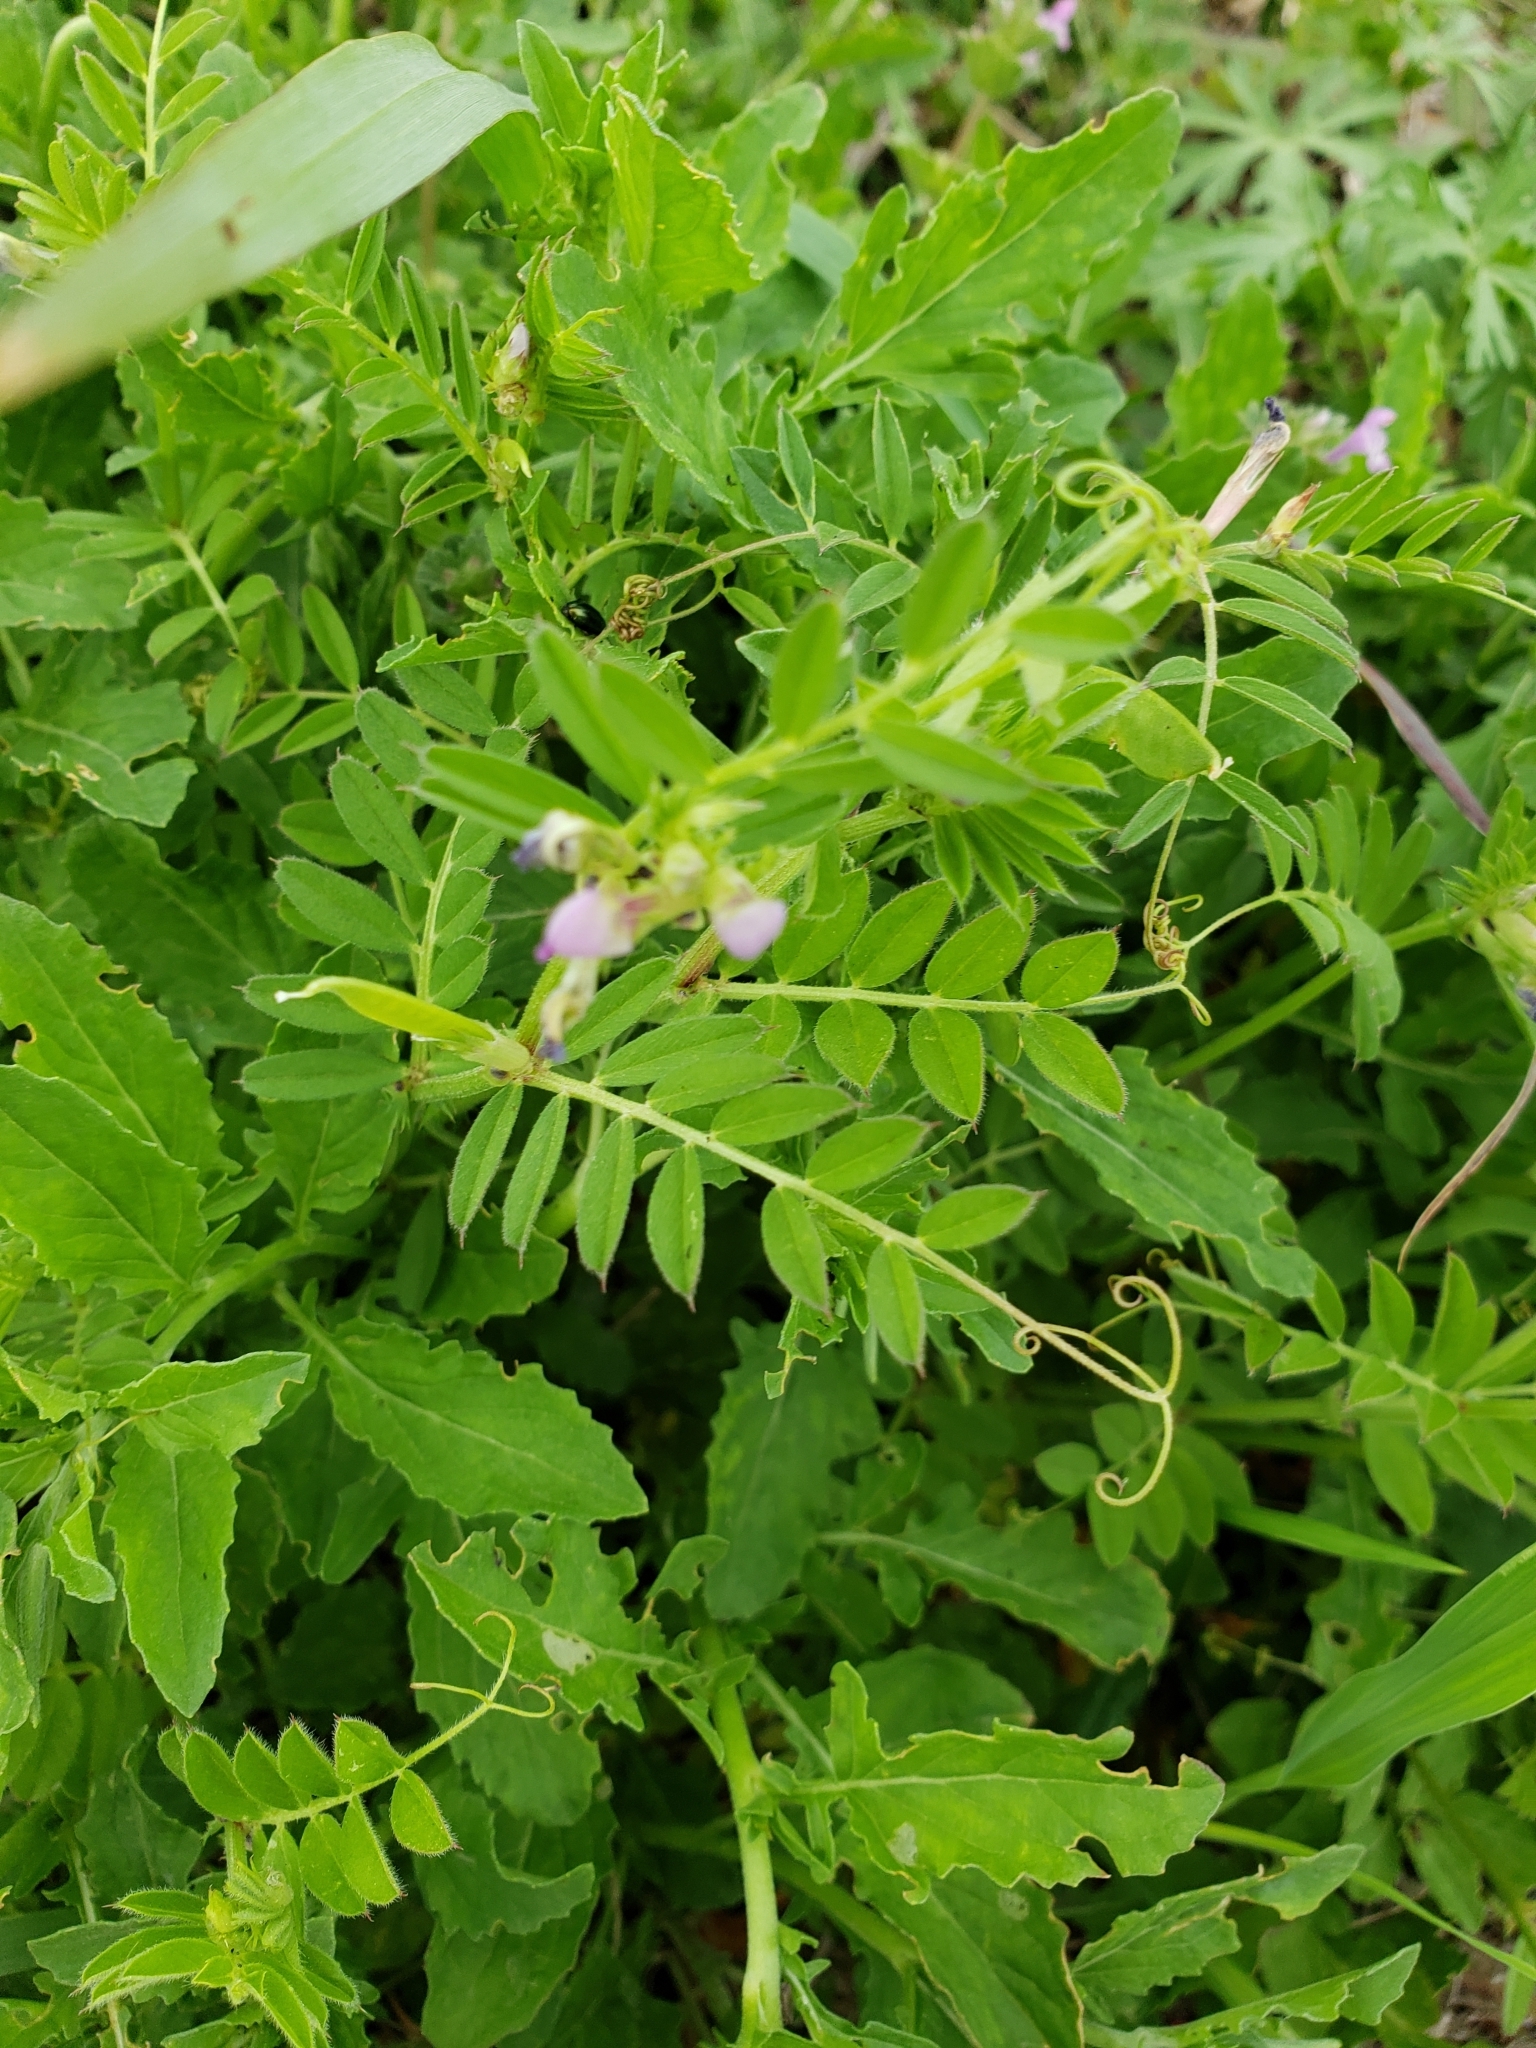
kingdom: Plantae
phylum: Tracheophyta
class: Magnoliopsida
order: Fabales
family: Fabaceae
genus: Vicia
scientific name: Vicia sativa
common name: Garden vetch
